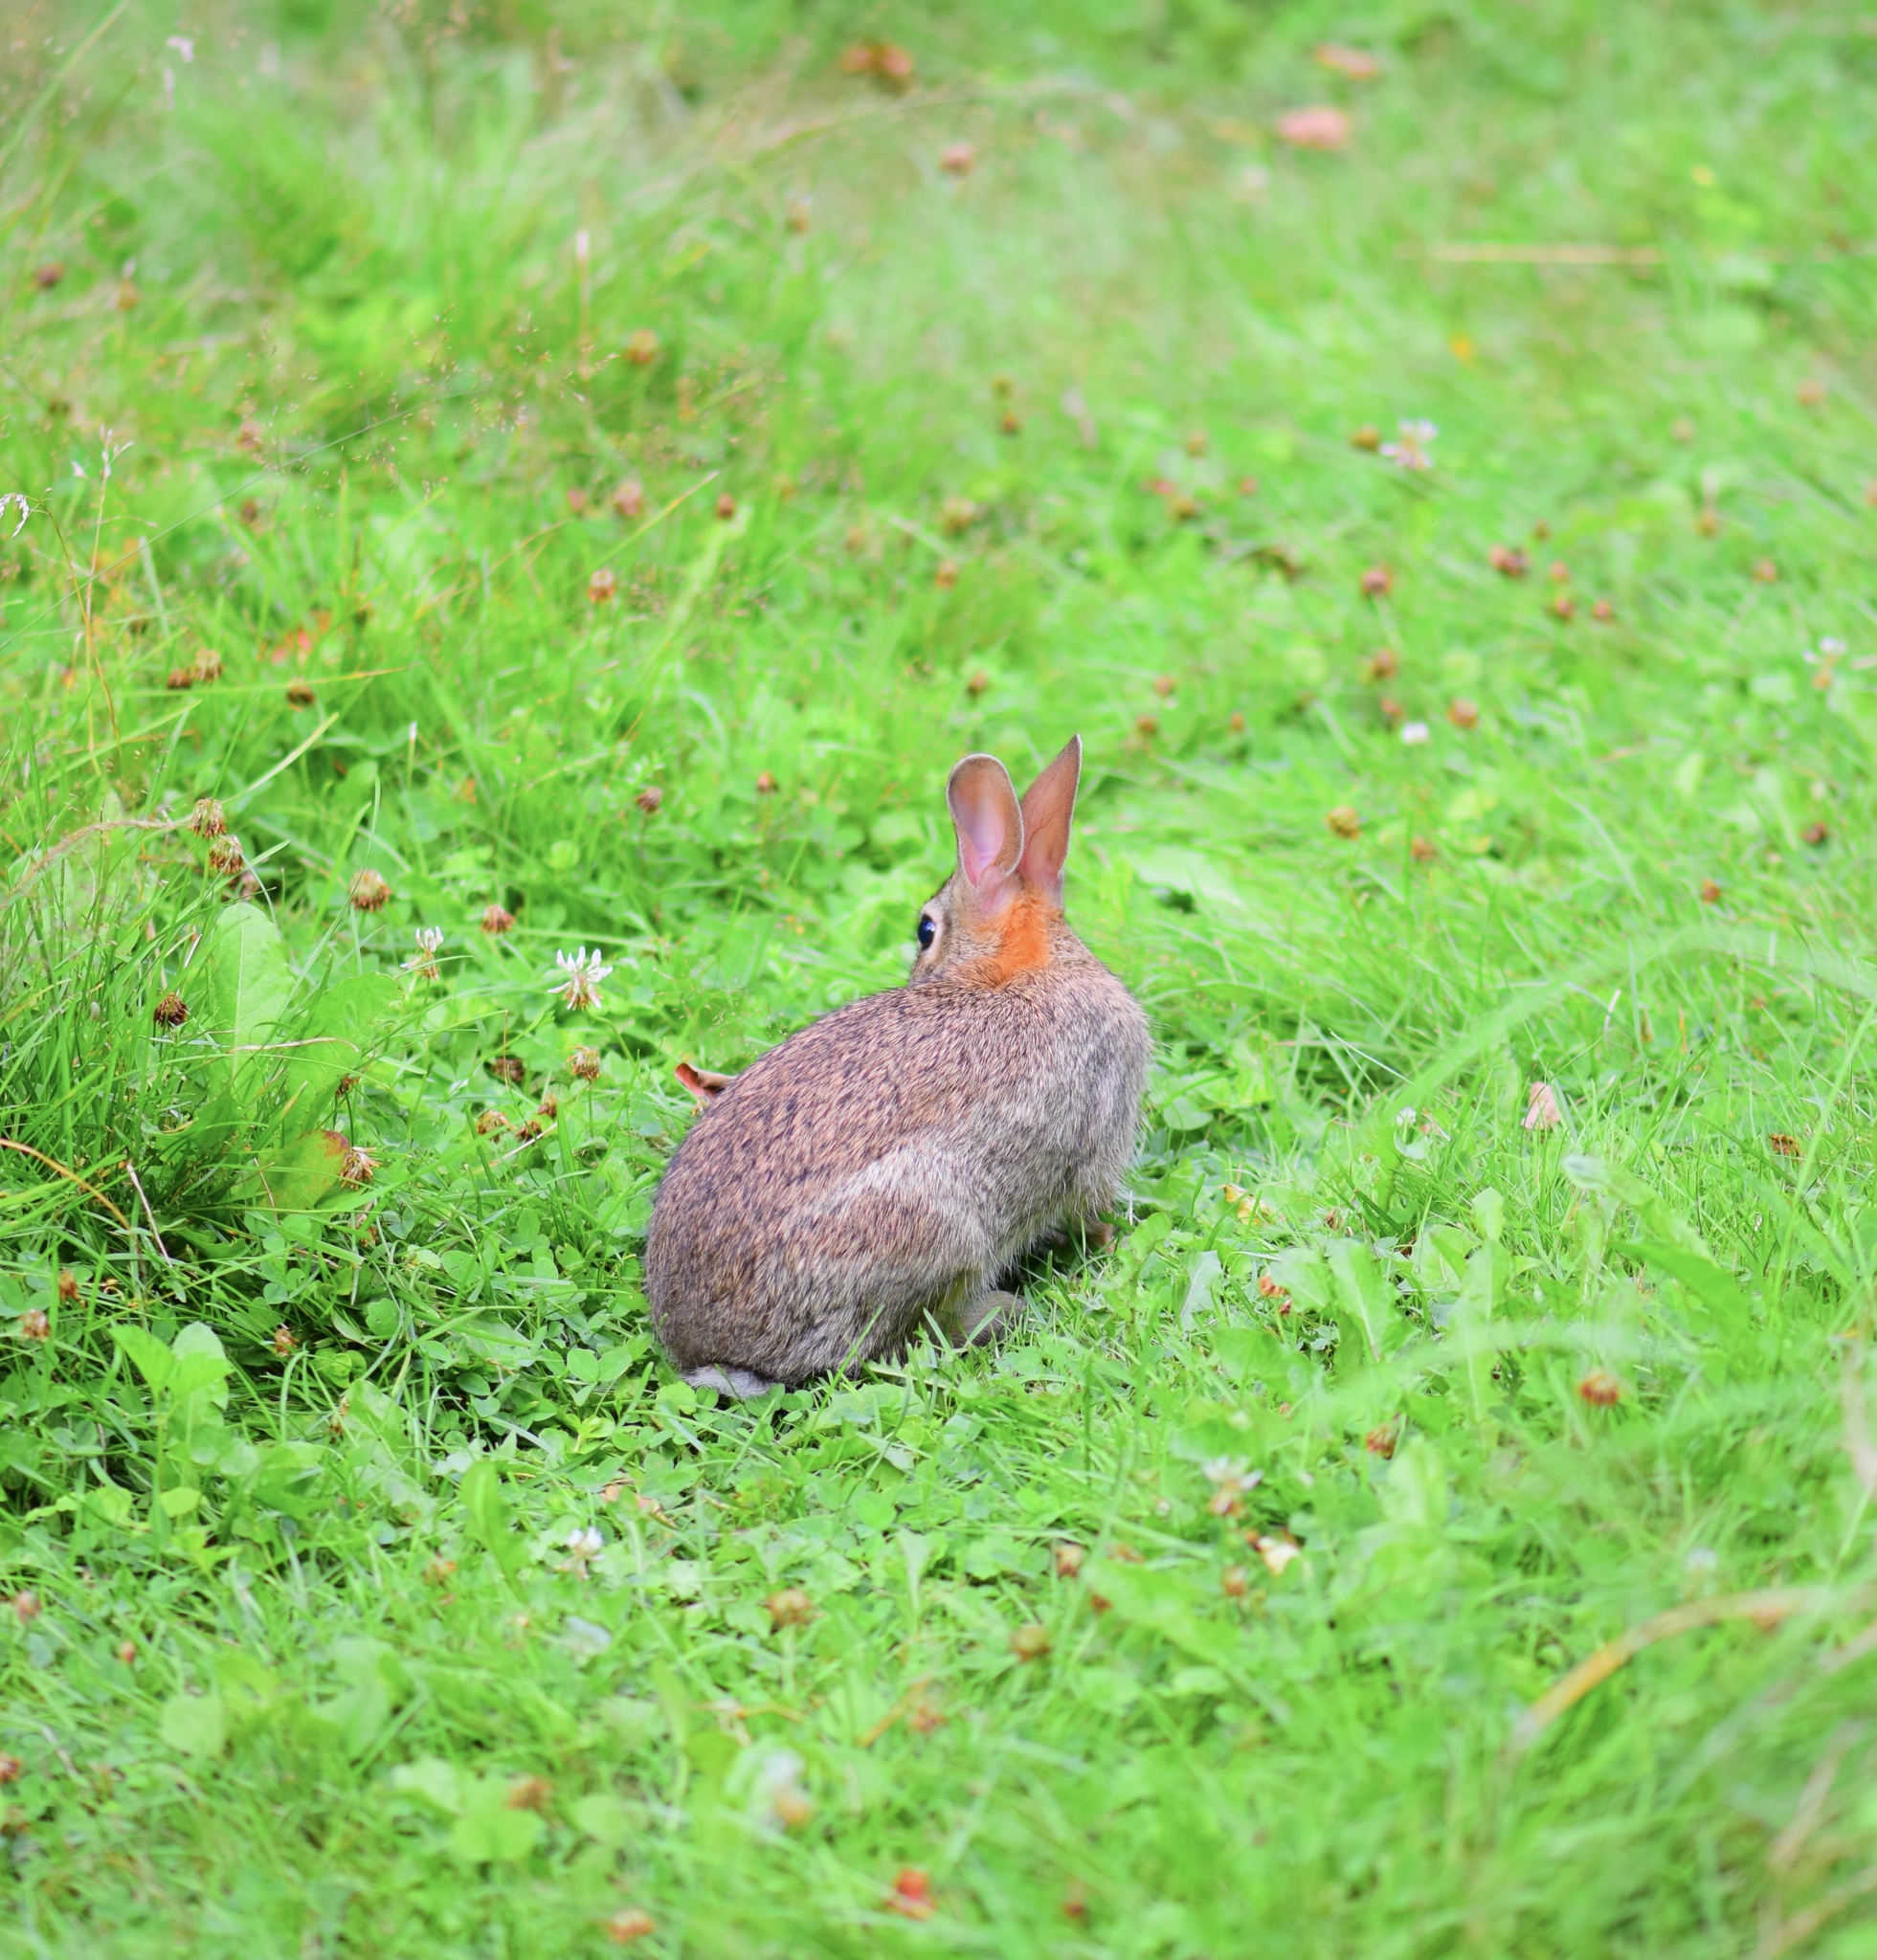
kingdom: Animalia
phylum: Chordata
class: Mammalia
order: Lagomorpha
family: Leporidae
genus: Sylvilagus
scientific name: Sylvilagus floridanus
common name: Eastern cottontail
